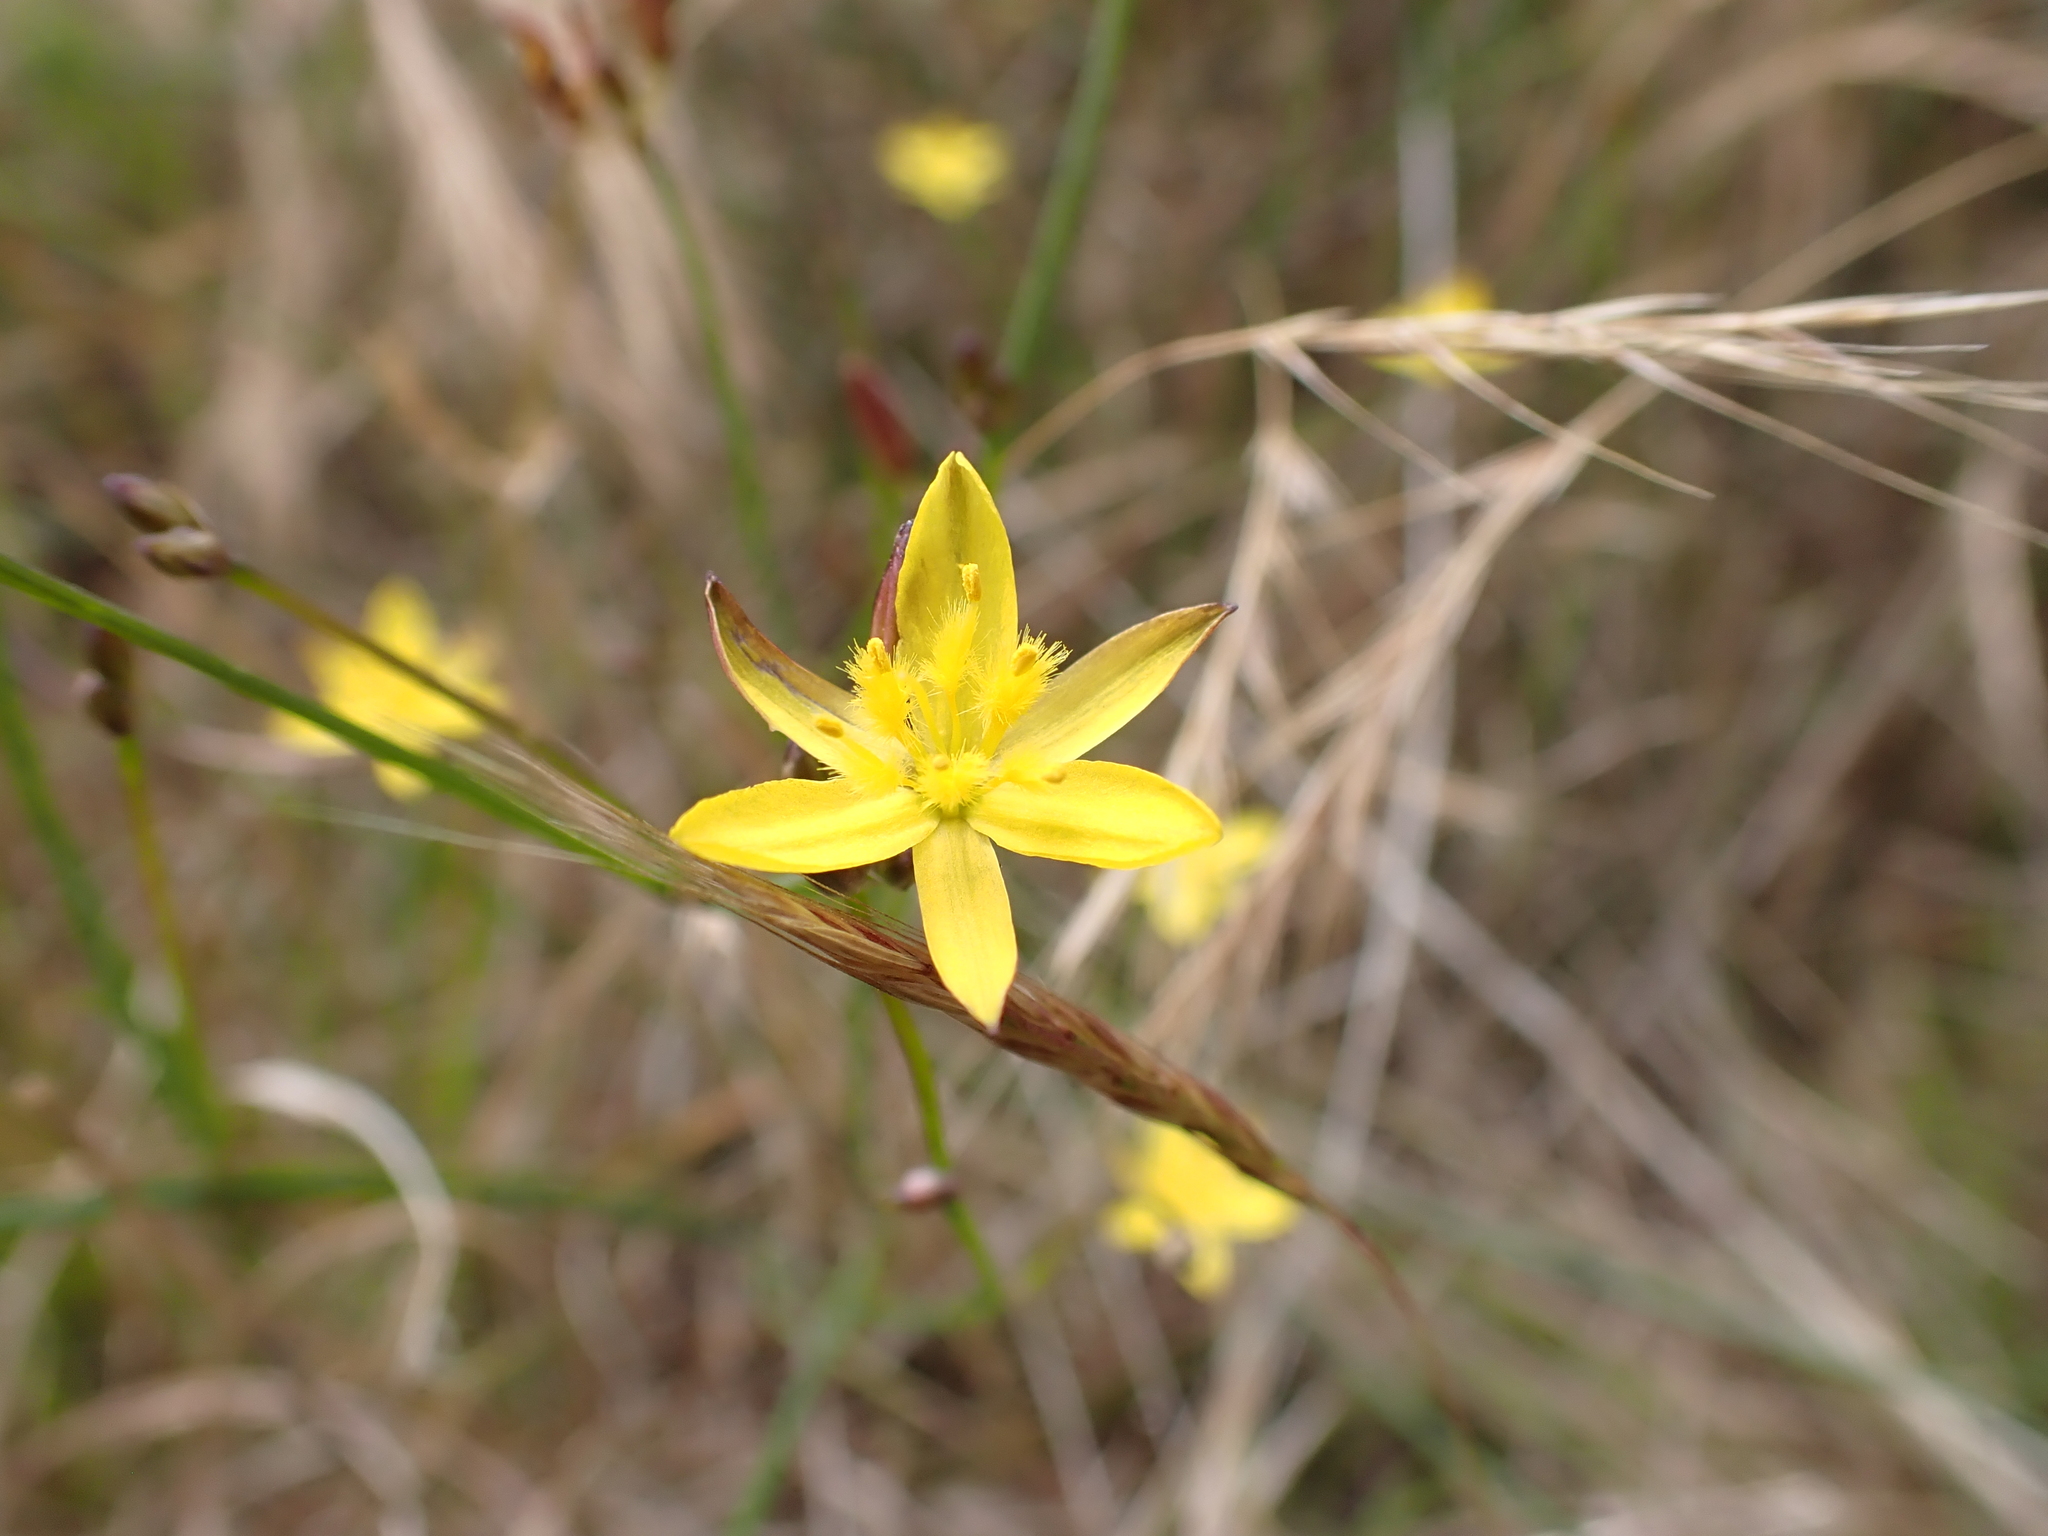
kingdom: Plantae
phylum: Tracheophyta
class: Liliopsida
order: Asparagales
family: Asphodelaceae
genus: Tricoryne
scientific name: Tricoryne elatior
